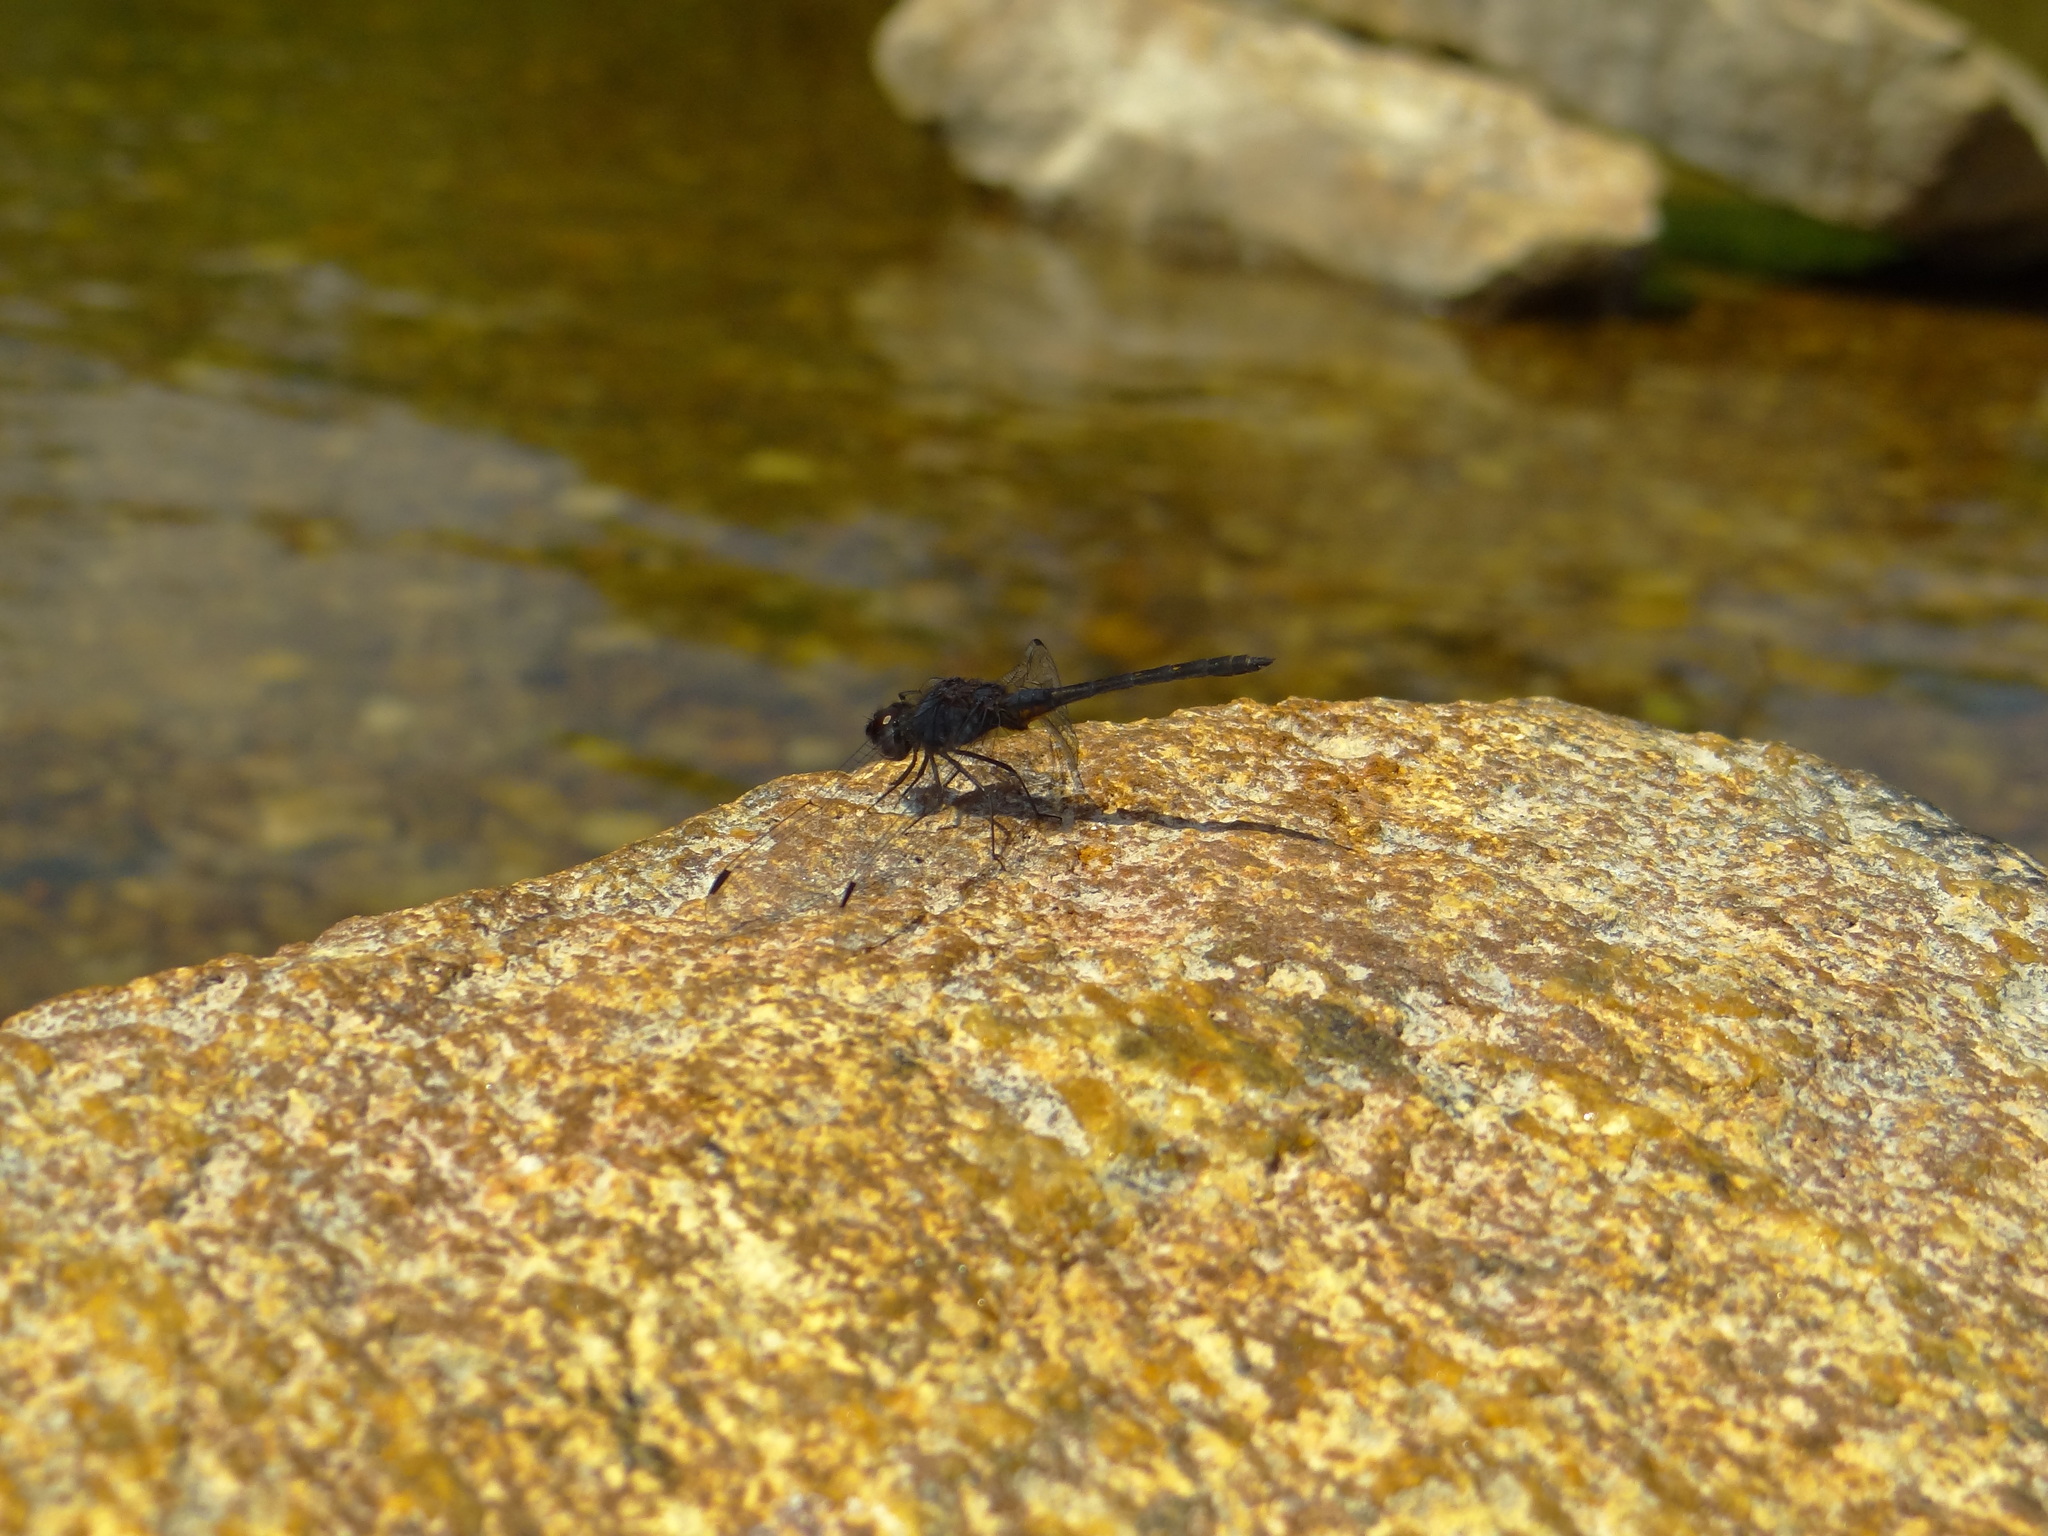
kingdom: Animalia
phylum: Arthropoda
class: Insecta
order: Odonata
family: Libellulidae
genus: Trithemis
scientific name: Trithemis festiva
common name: Indigo dropwing
